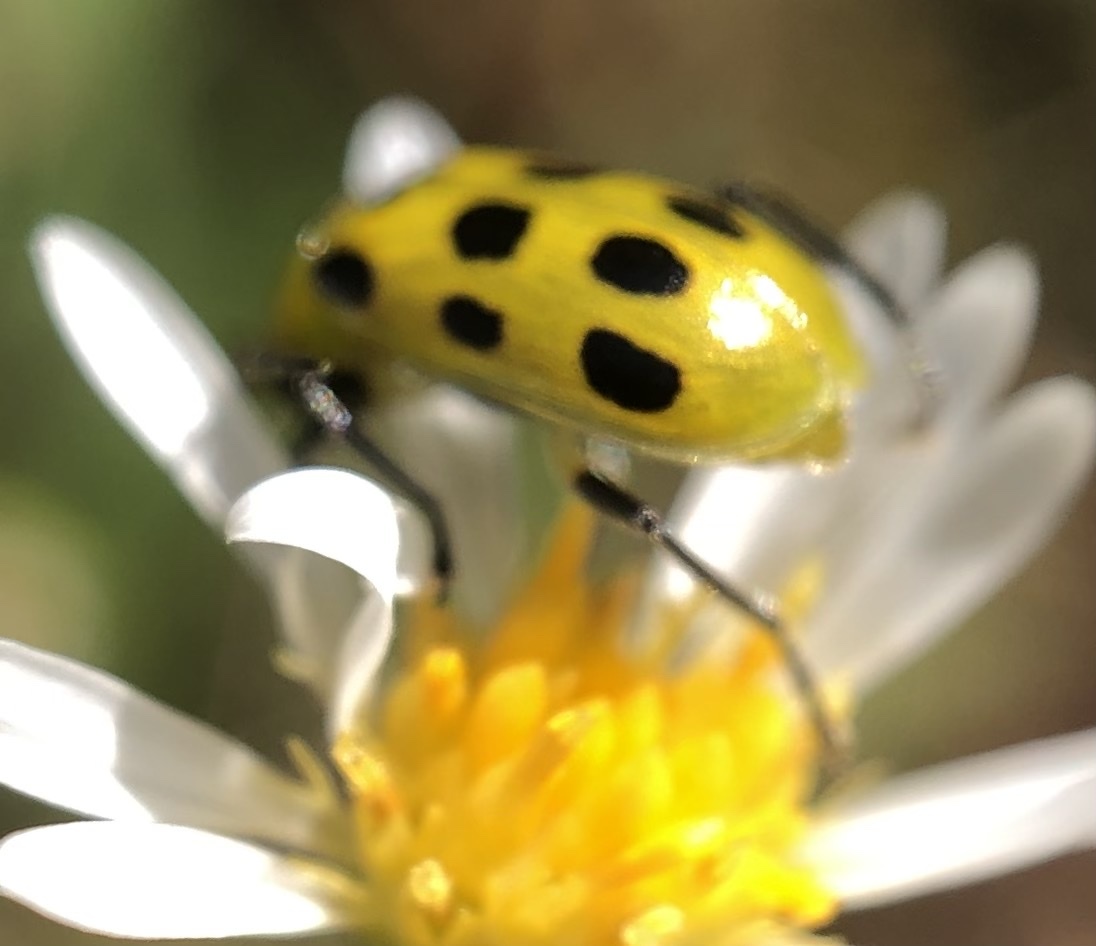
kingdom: Animalia
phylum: Arthropoda
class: Insecta
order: Coleoptera
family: Chrysomelidae
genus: Diabrotica
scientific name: Diabrotica undecimpunctata
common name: Spotted cucumber beetle
